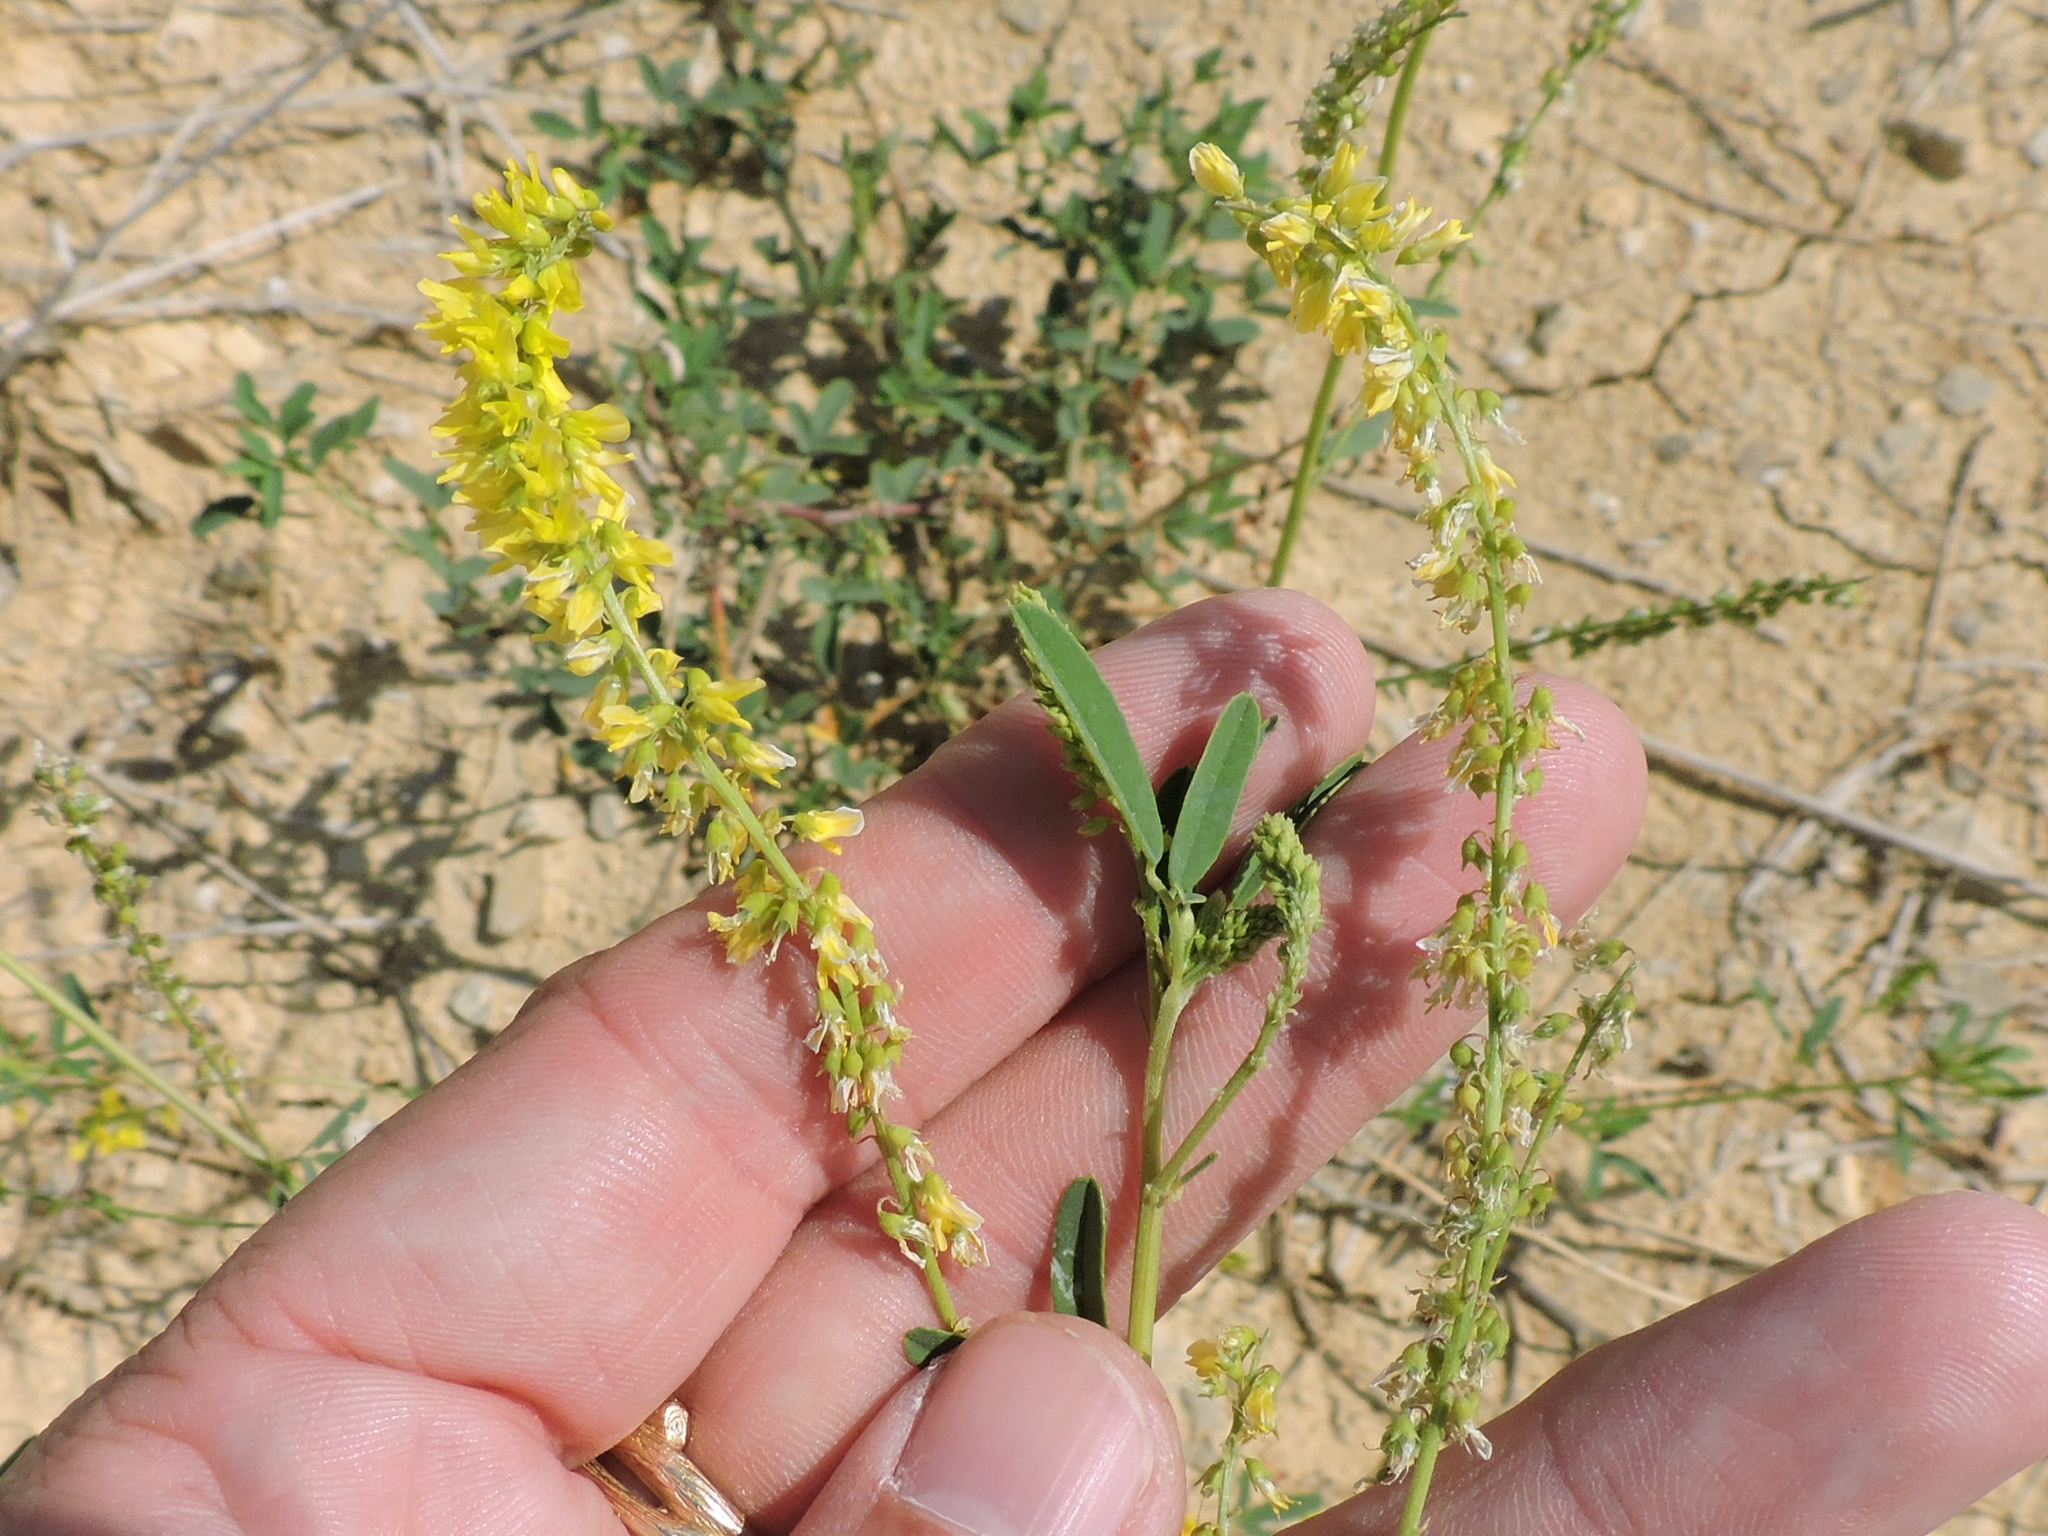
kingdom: Plantae
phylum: Tracheophyta
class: Magnoliopsida
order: Fabales
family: Fabaceae
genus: Melilotus
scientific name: Melilotus officinalis
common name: Sweetclover
